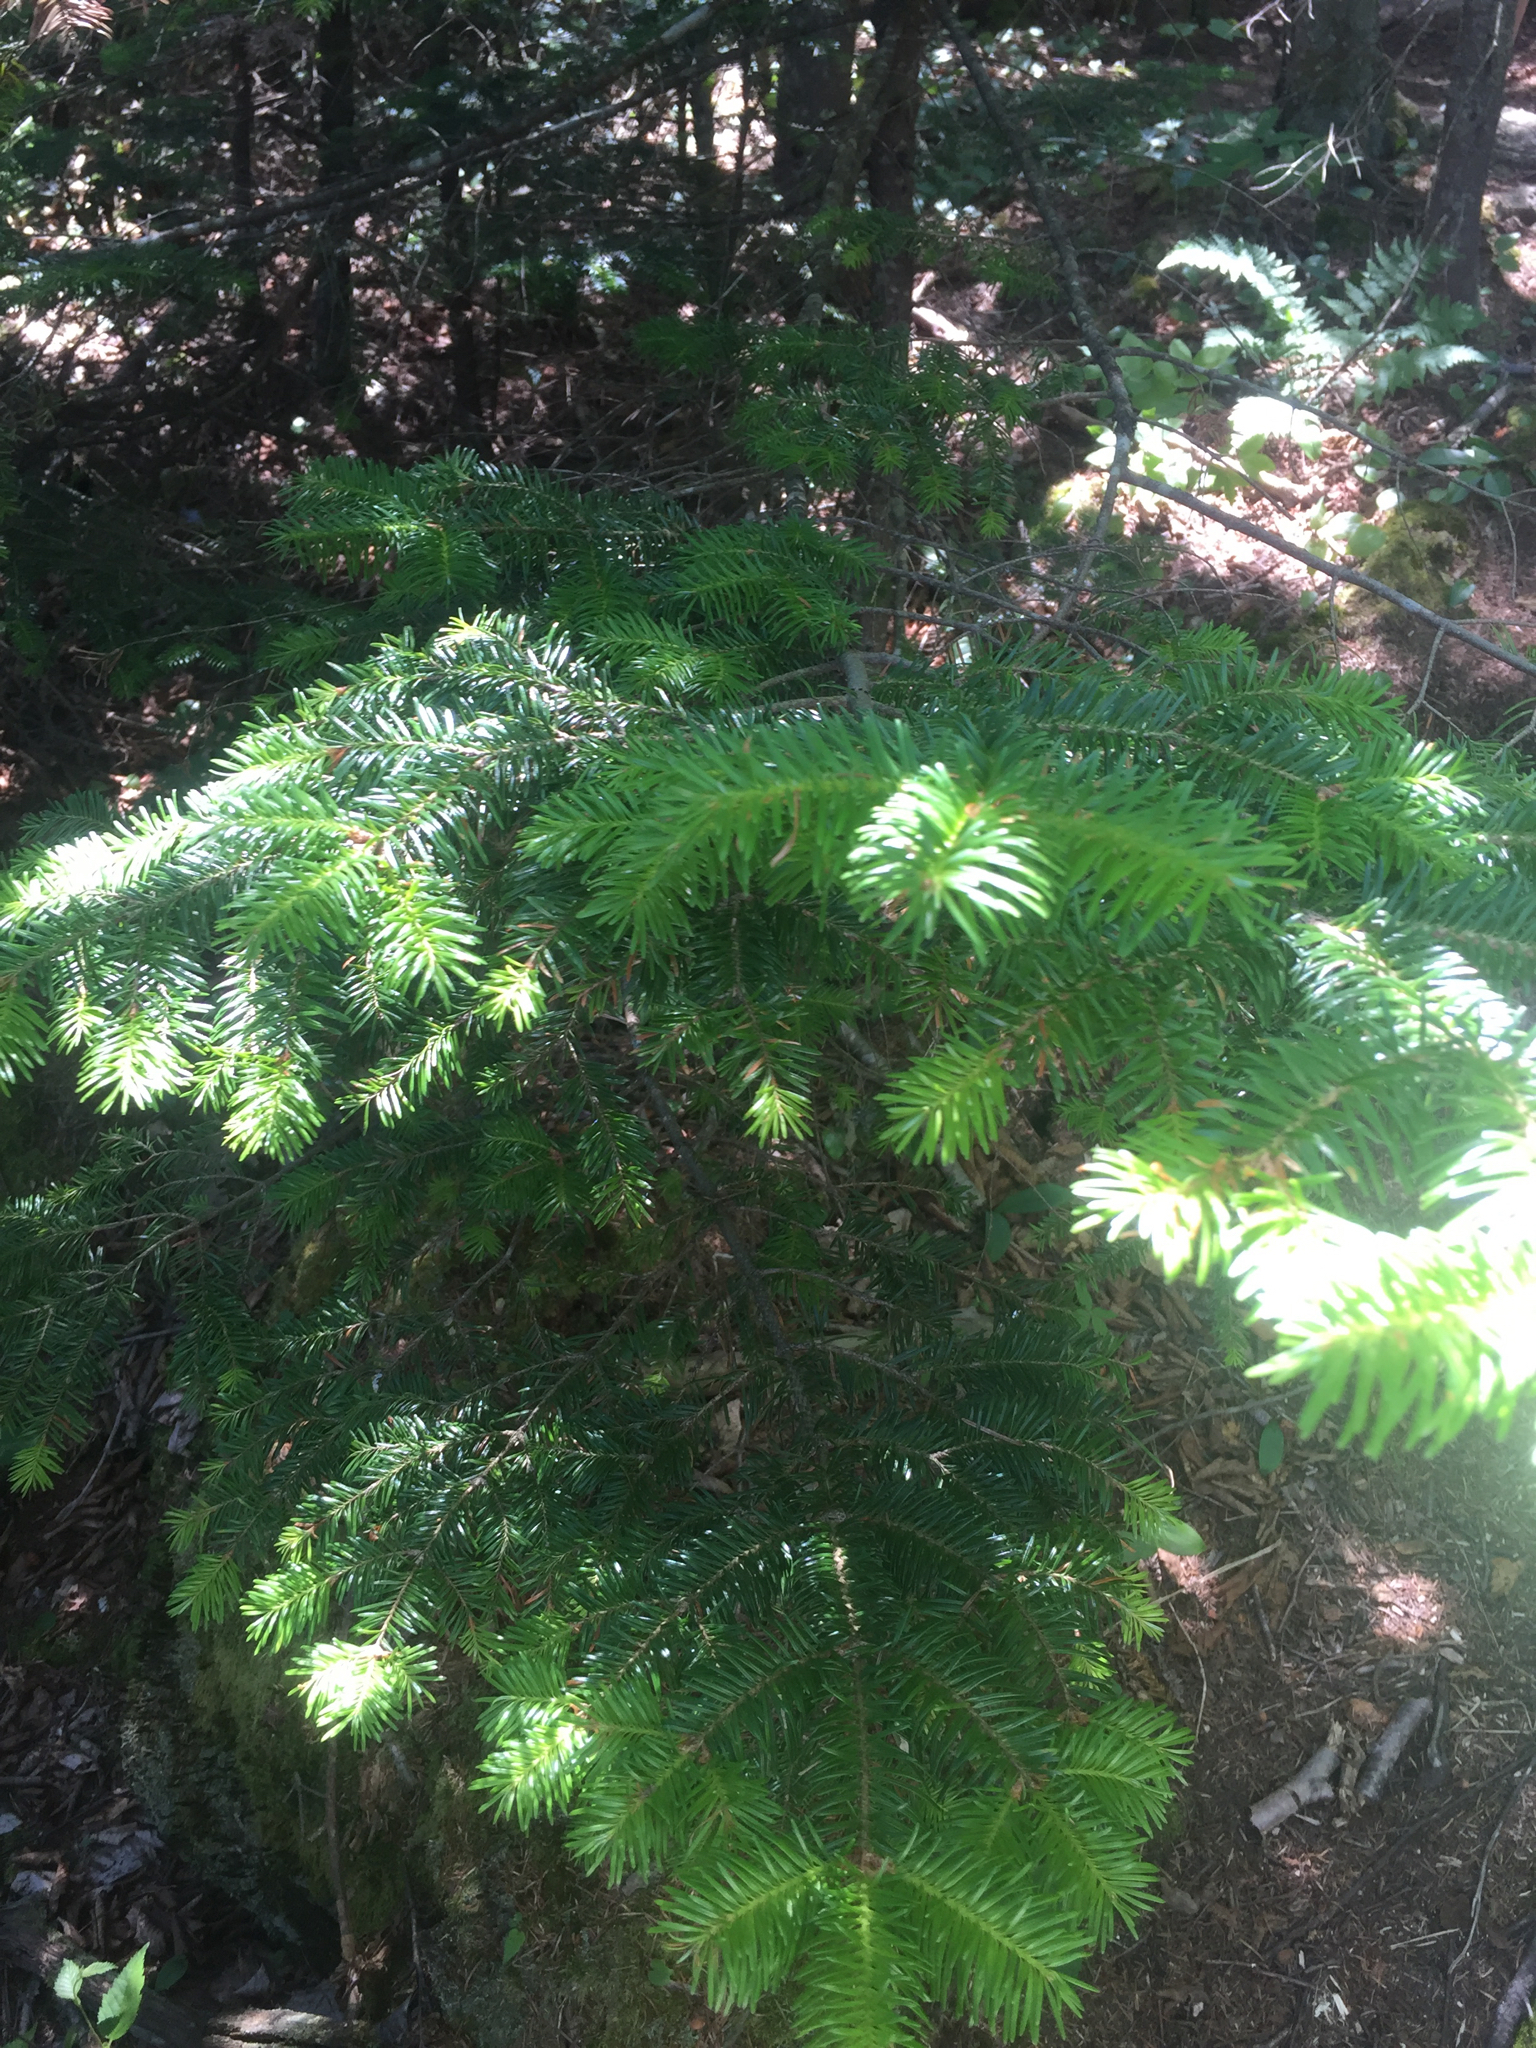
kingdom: Plantae
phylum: Tracheophyta
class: Pinopsida
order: Pinales
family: Pinaceae
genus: Abies
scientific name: Abies balsamea
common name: Balsam fir
